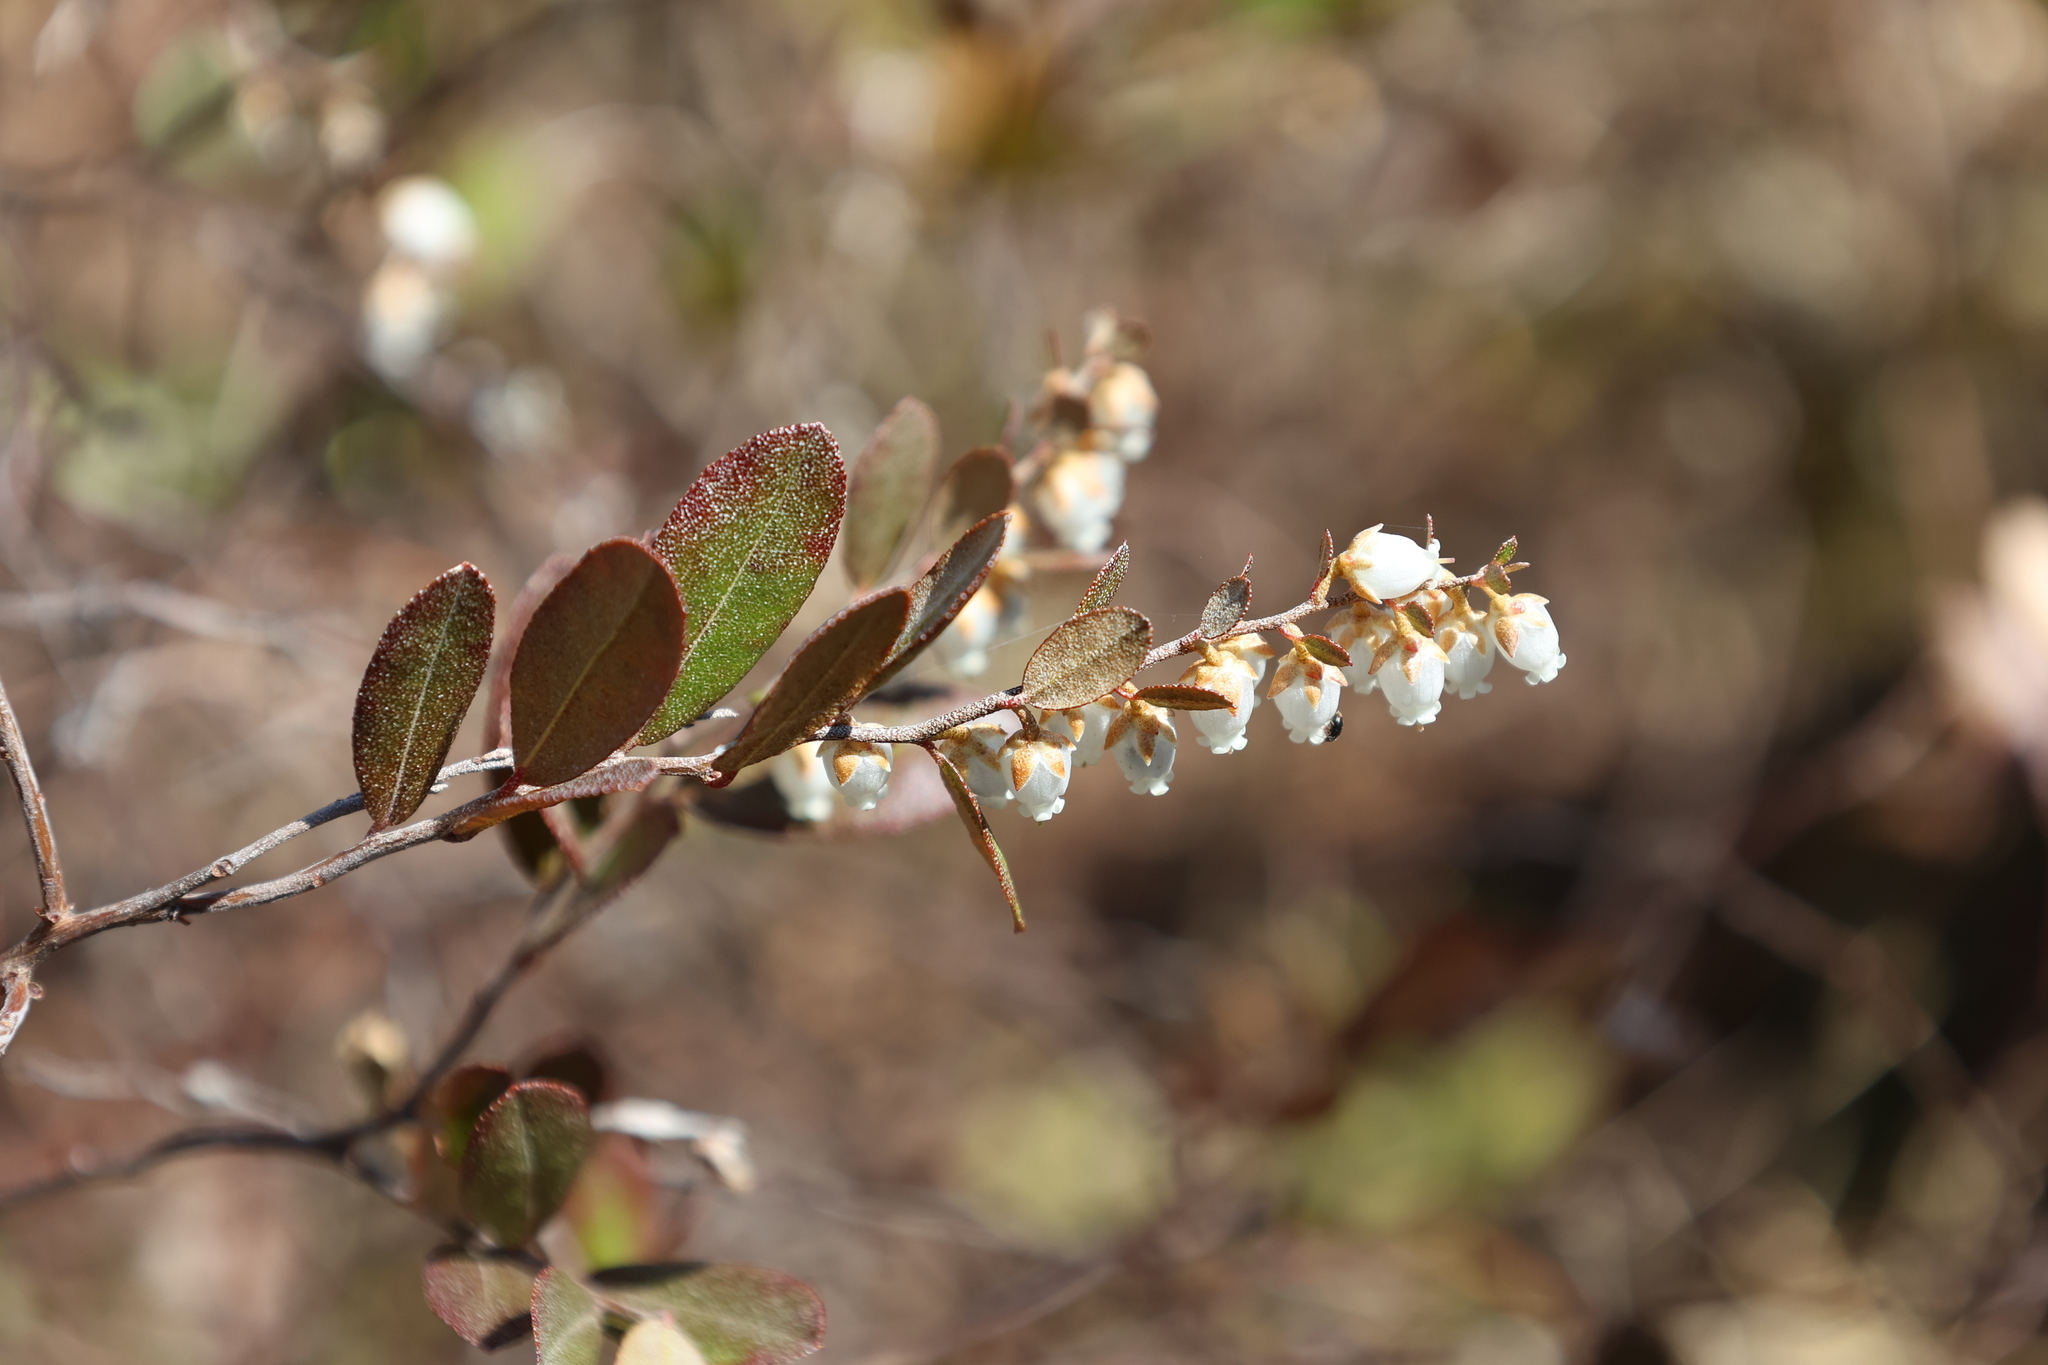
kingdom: Plantae
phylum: Tracheophyta
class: Magnoliopsida
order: Ericales
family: Ericaceae
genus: Chamaedaphne
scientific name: Chamaedaphne calyculata
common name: Leatherleaf
